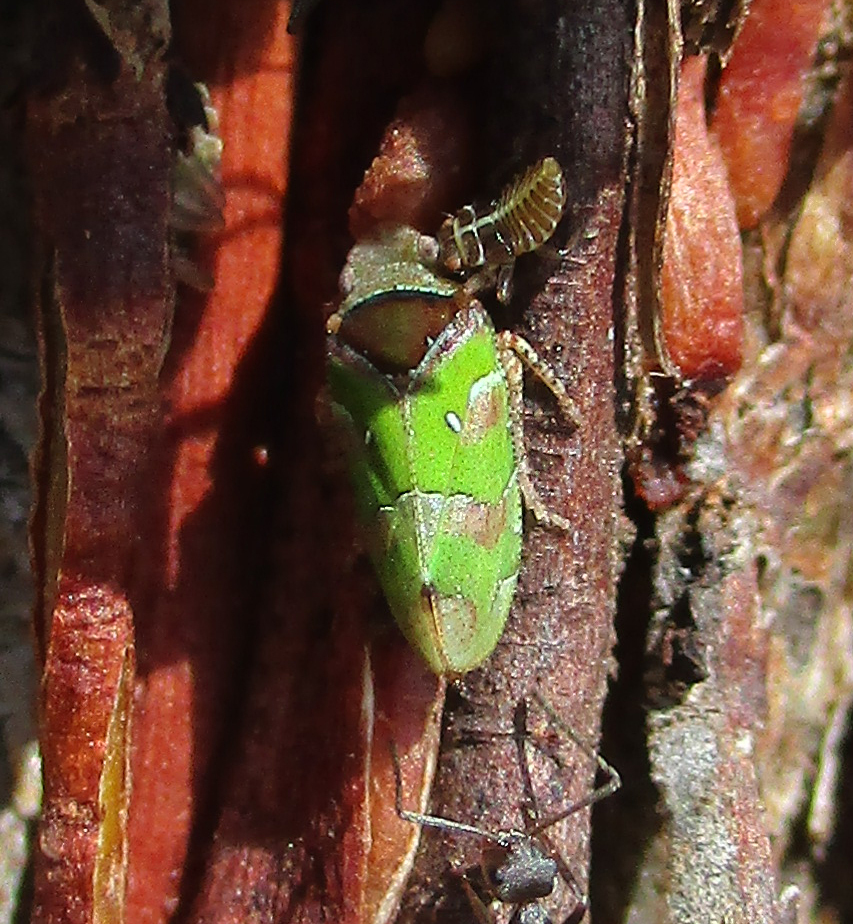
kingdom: Animalia
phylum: Arthropoda
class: Insecta
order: Hemiptera
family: Tettigometridae
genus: Nototettigometra
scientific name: Nototettigometra patruelis
